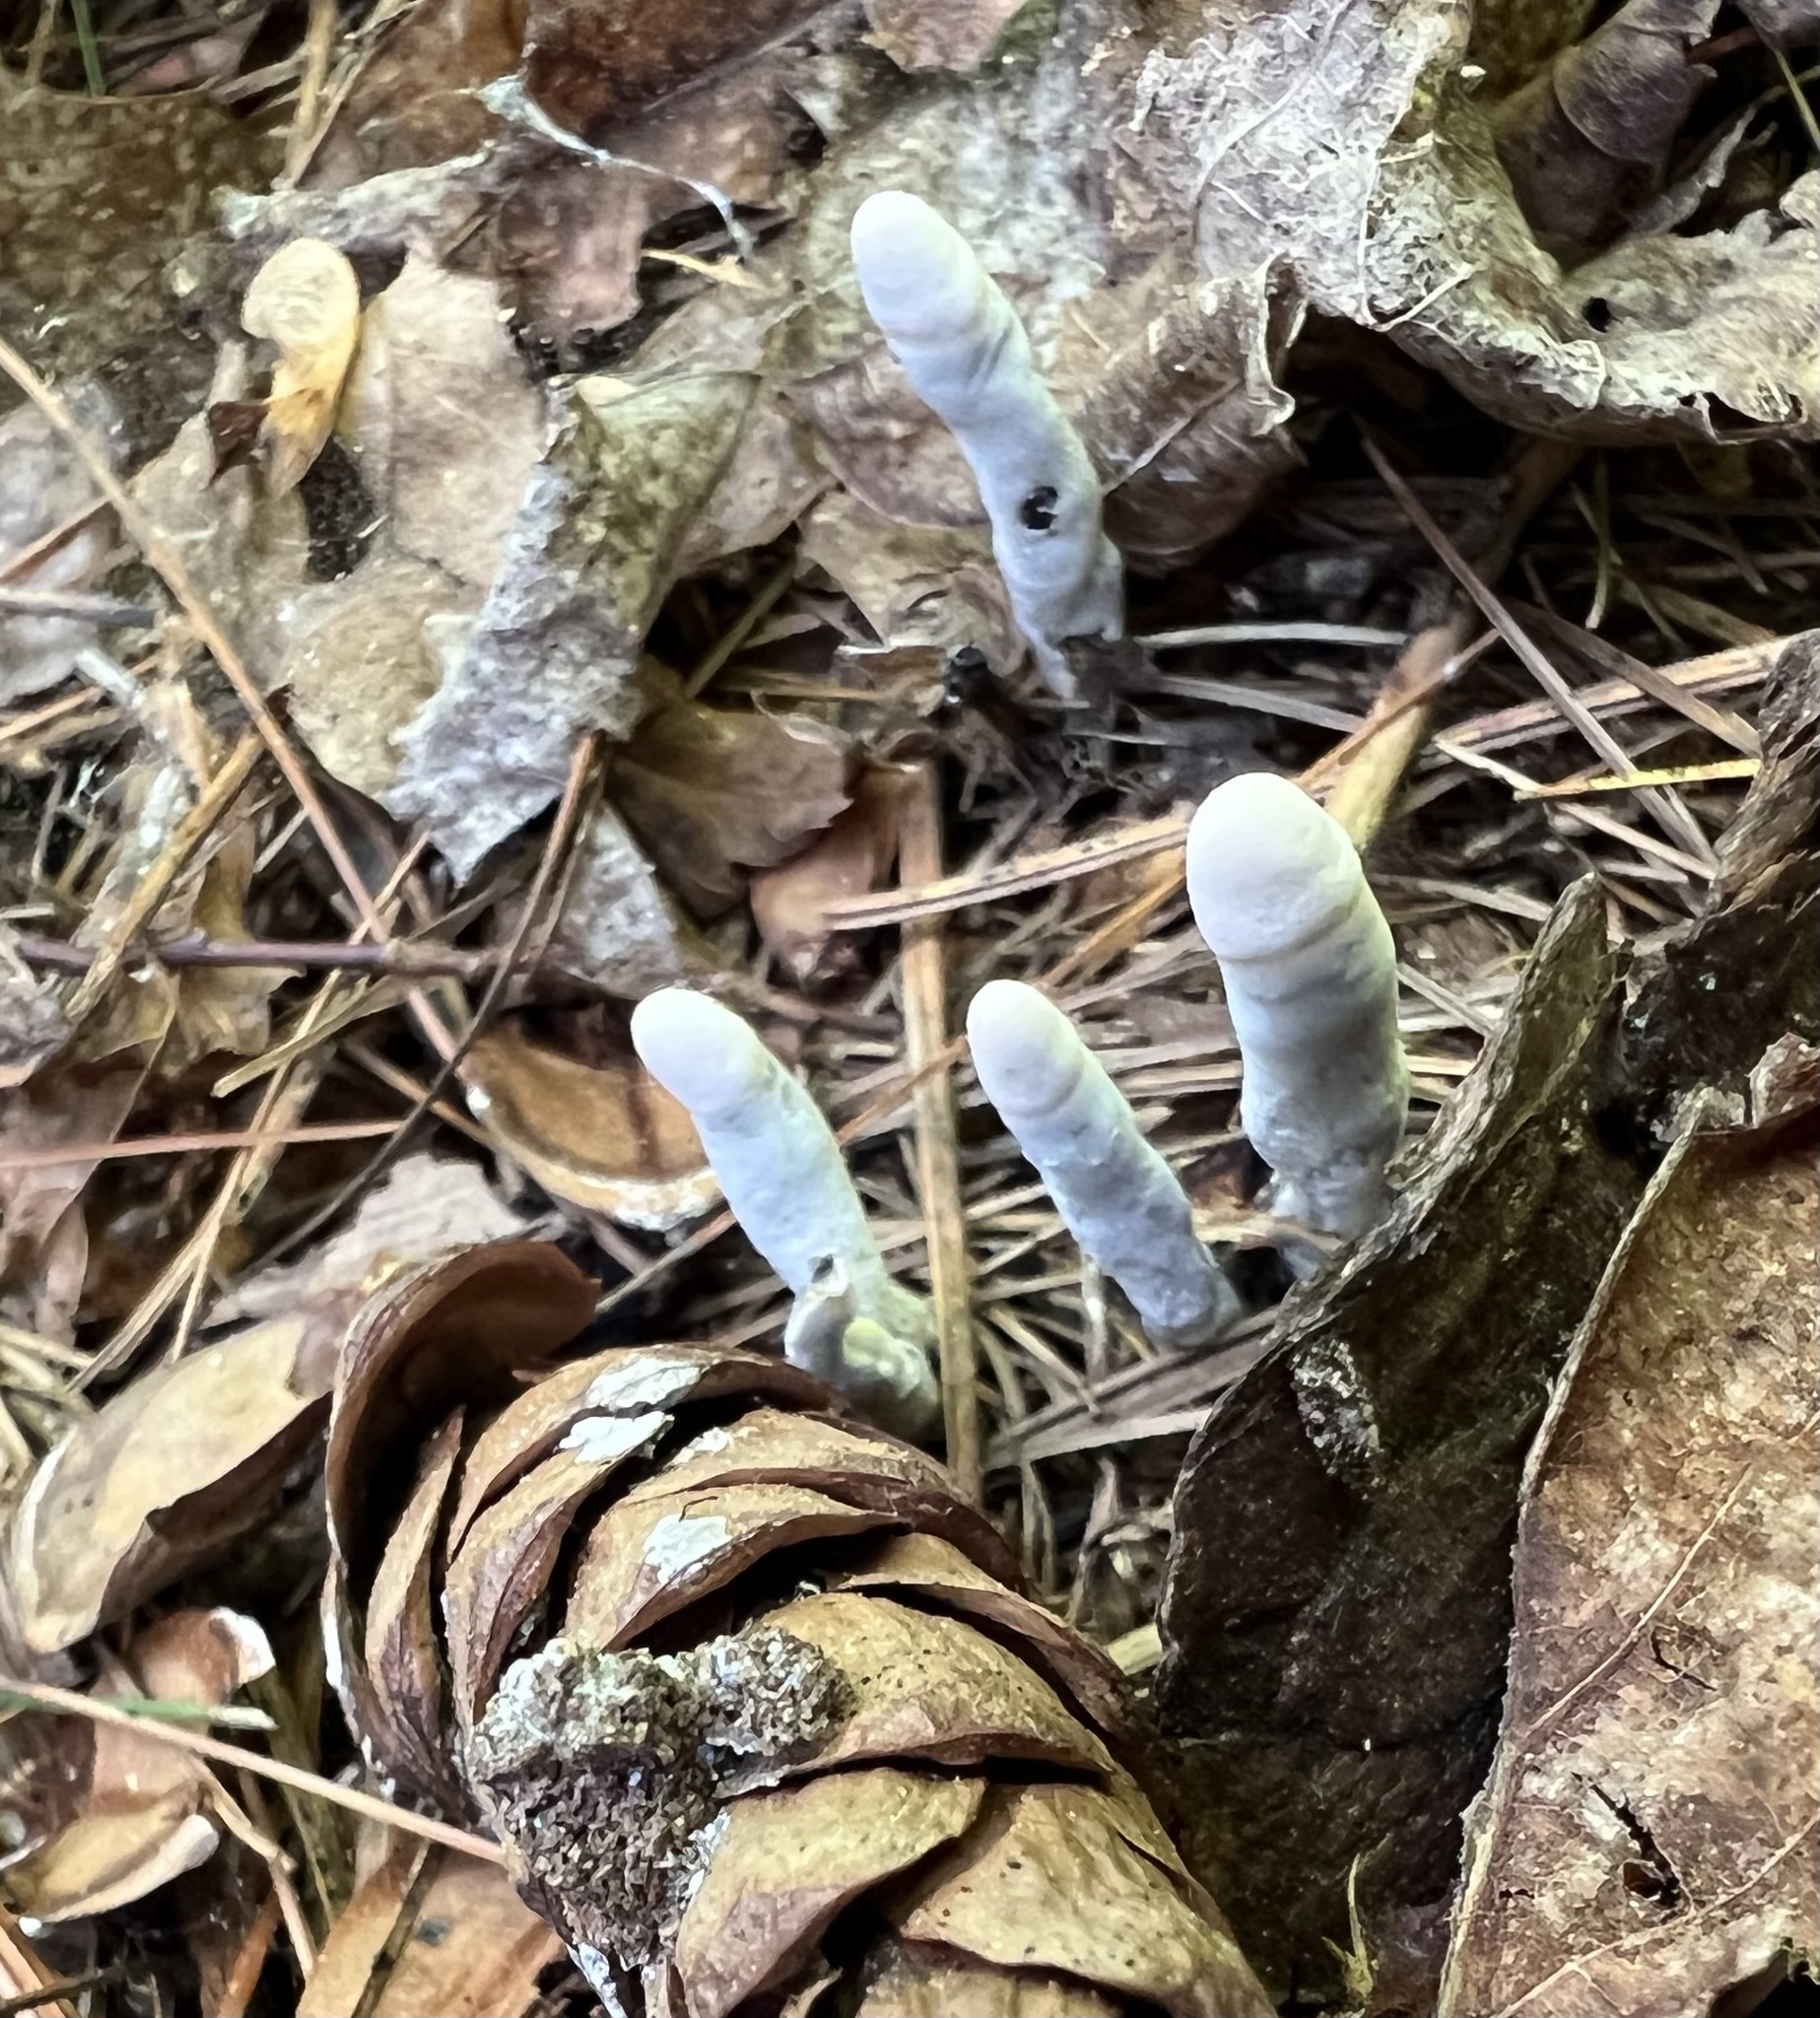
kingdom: Fungi
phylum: Ascomycota
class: Sordariomycetes
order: Xylariales
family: Xylariaceae
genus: Xylaria
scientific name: Xylaria polymorpha
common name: Dead man's fingers
